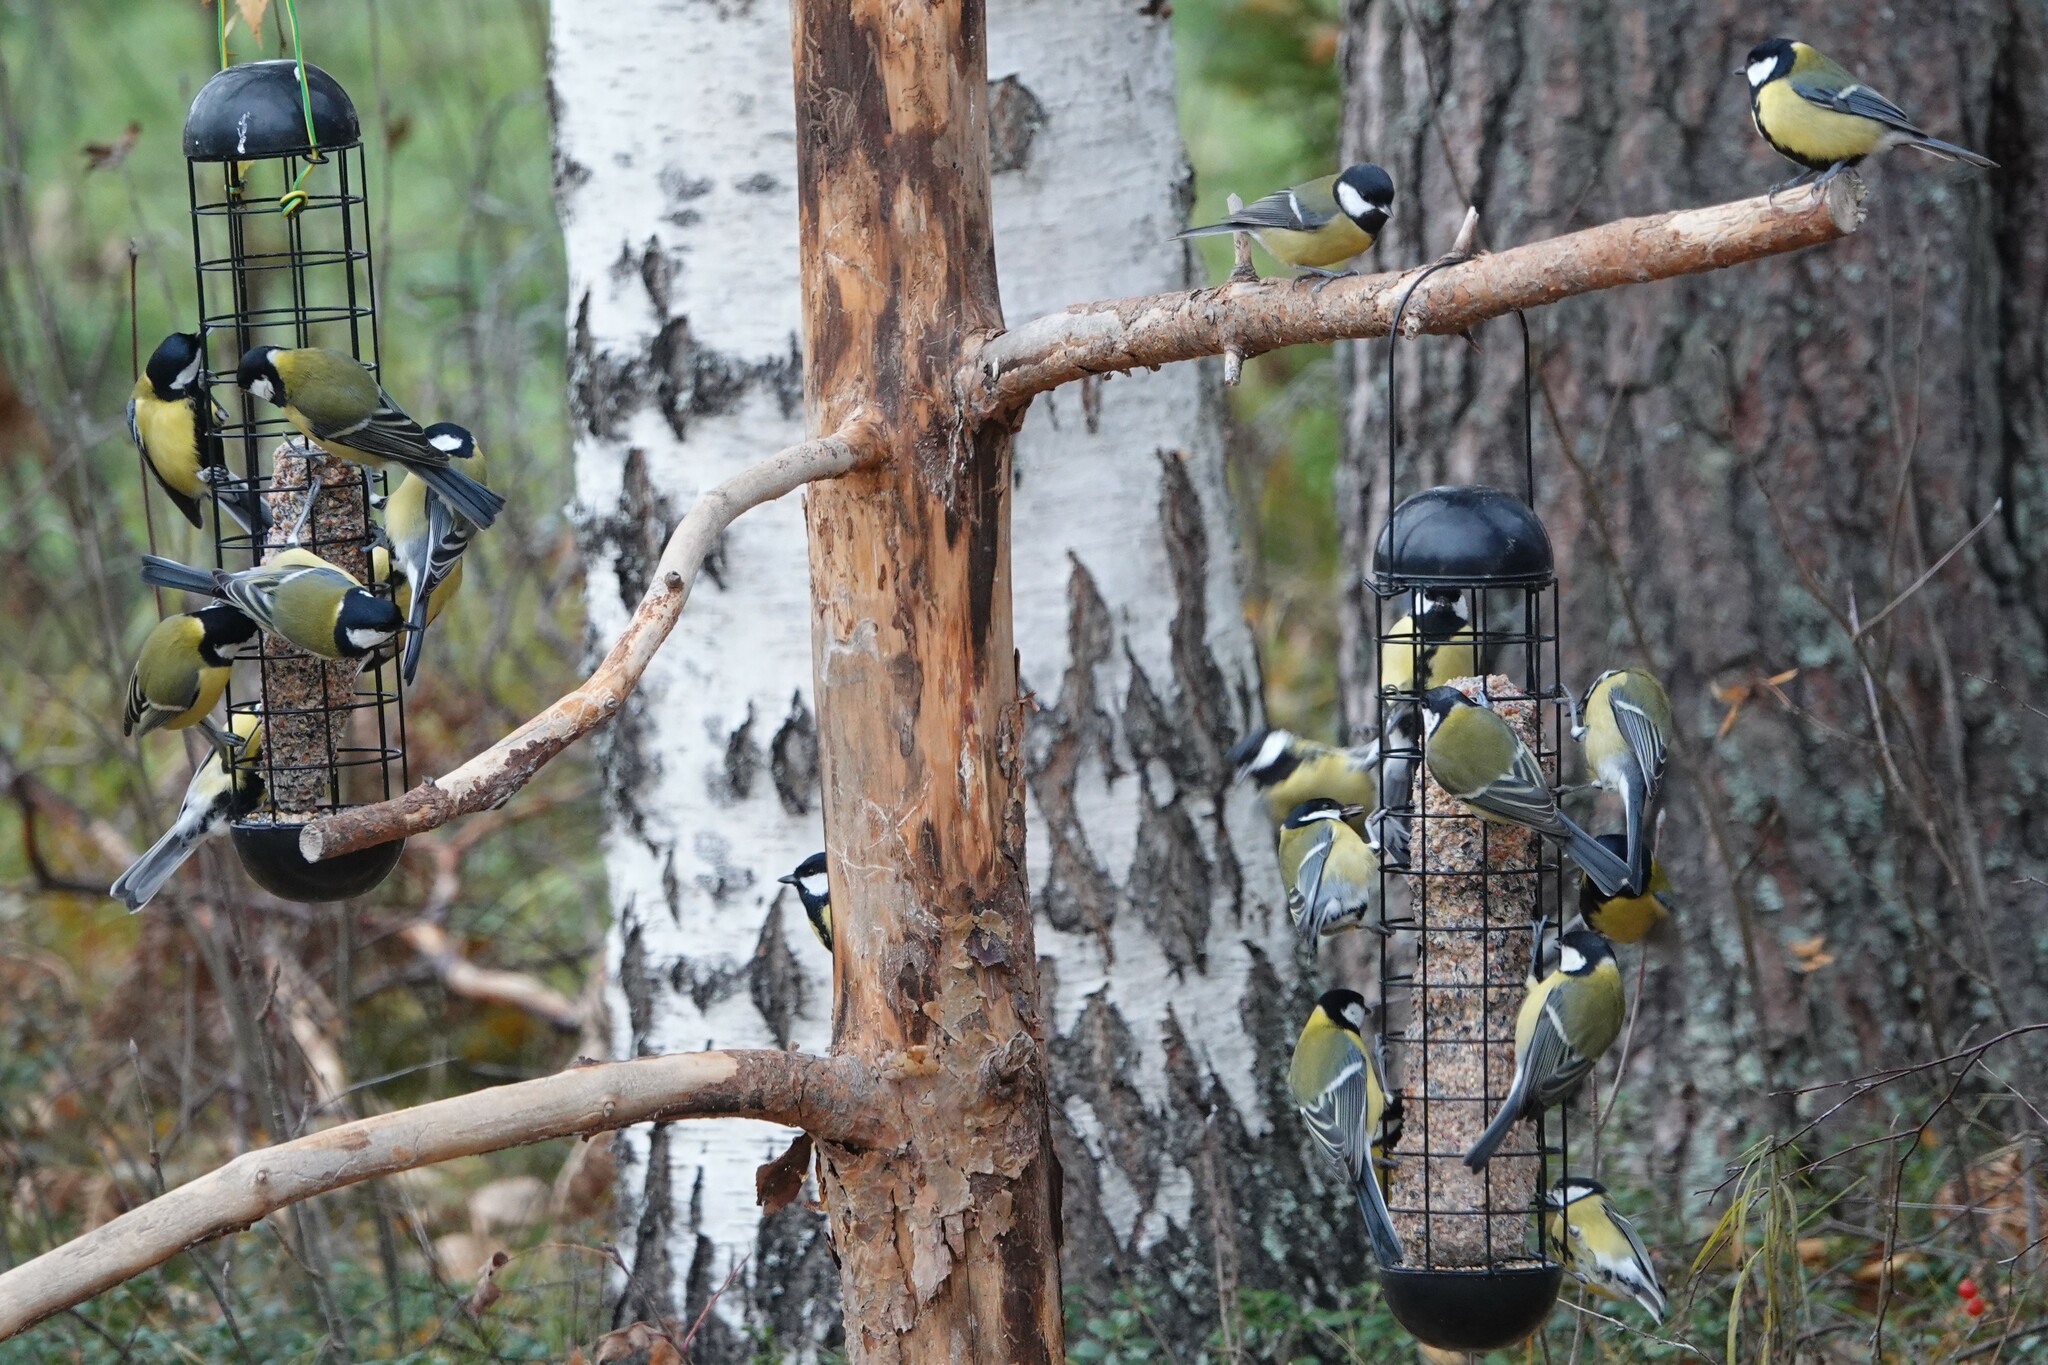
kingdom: Animalia
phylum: Chordata
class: Aves
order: Passeriformes
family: Paridae
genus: Parus
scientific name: Parus major
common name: Great tit
